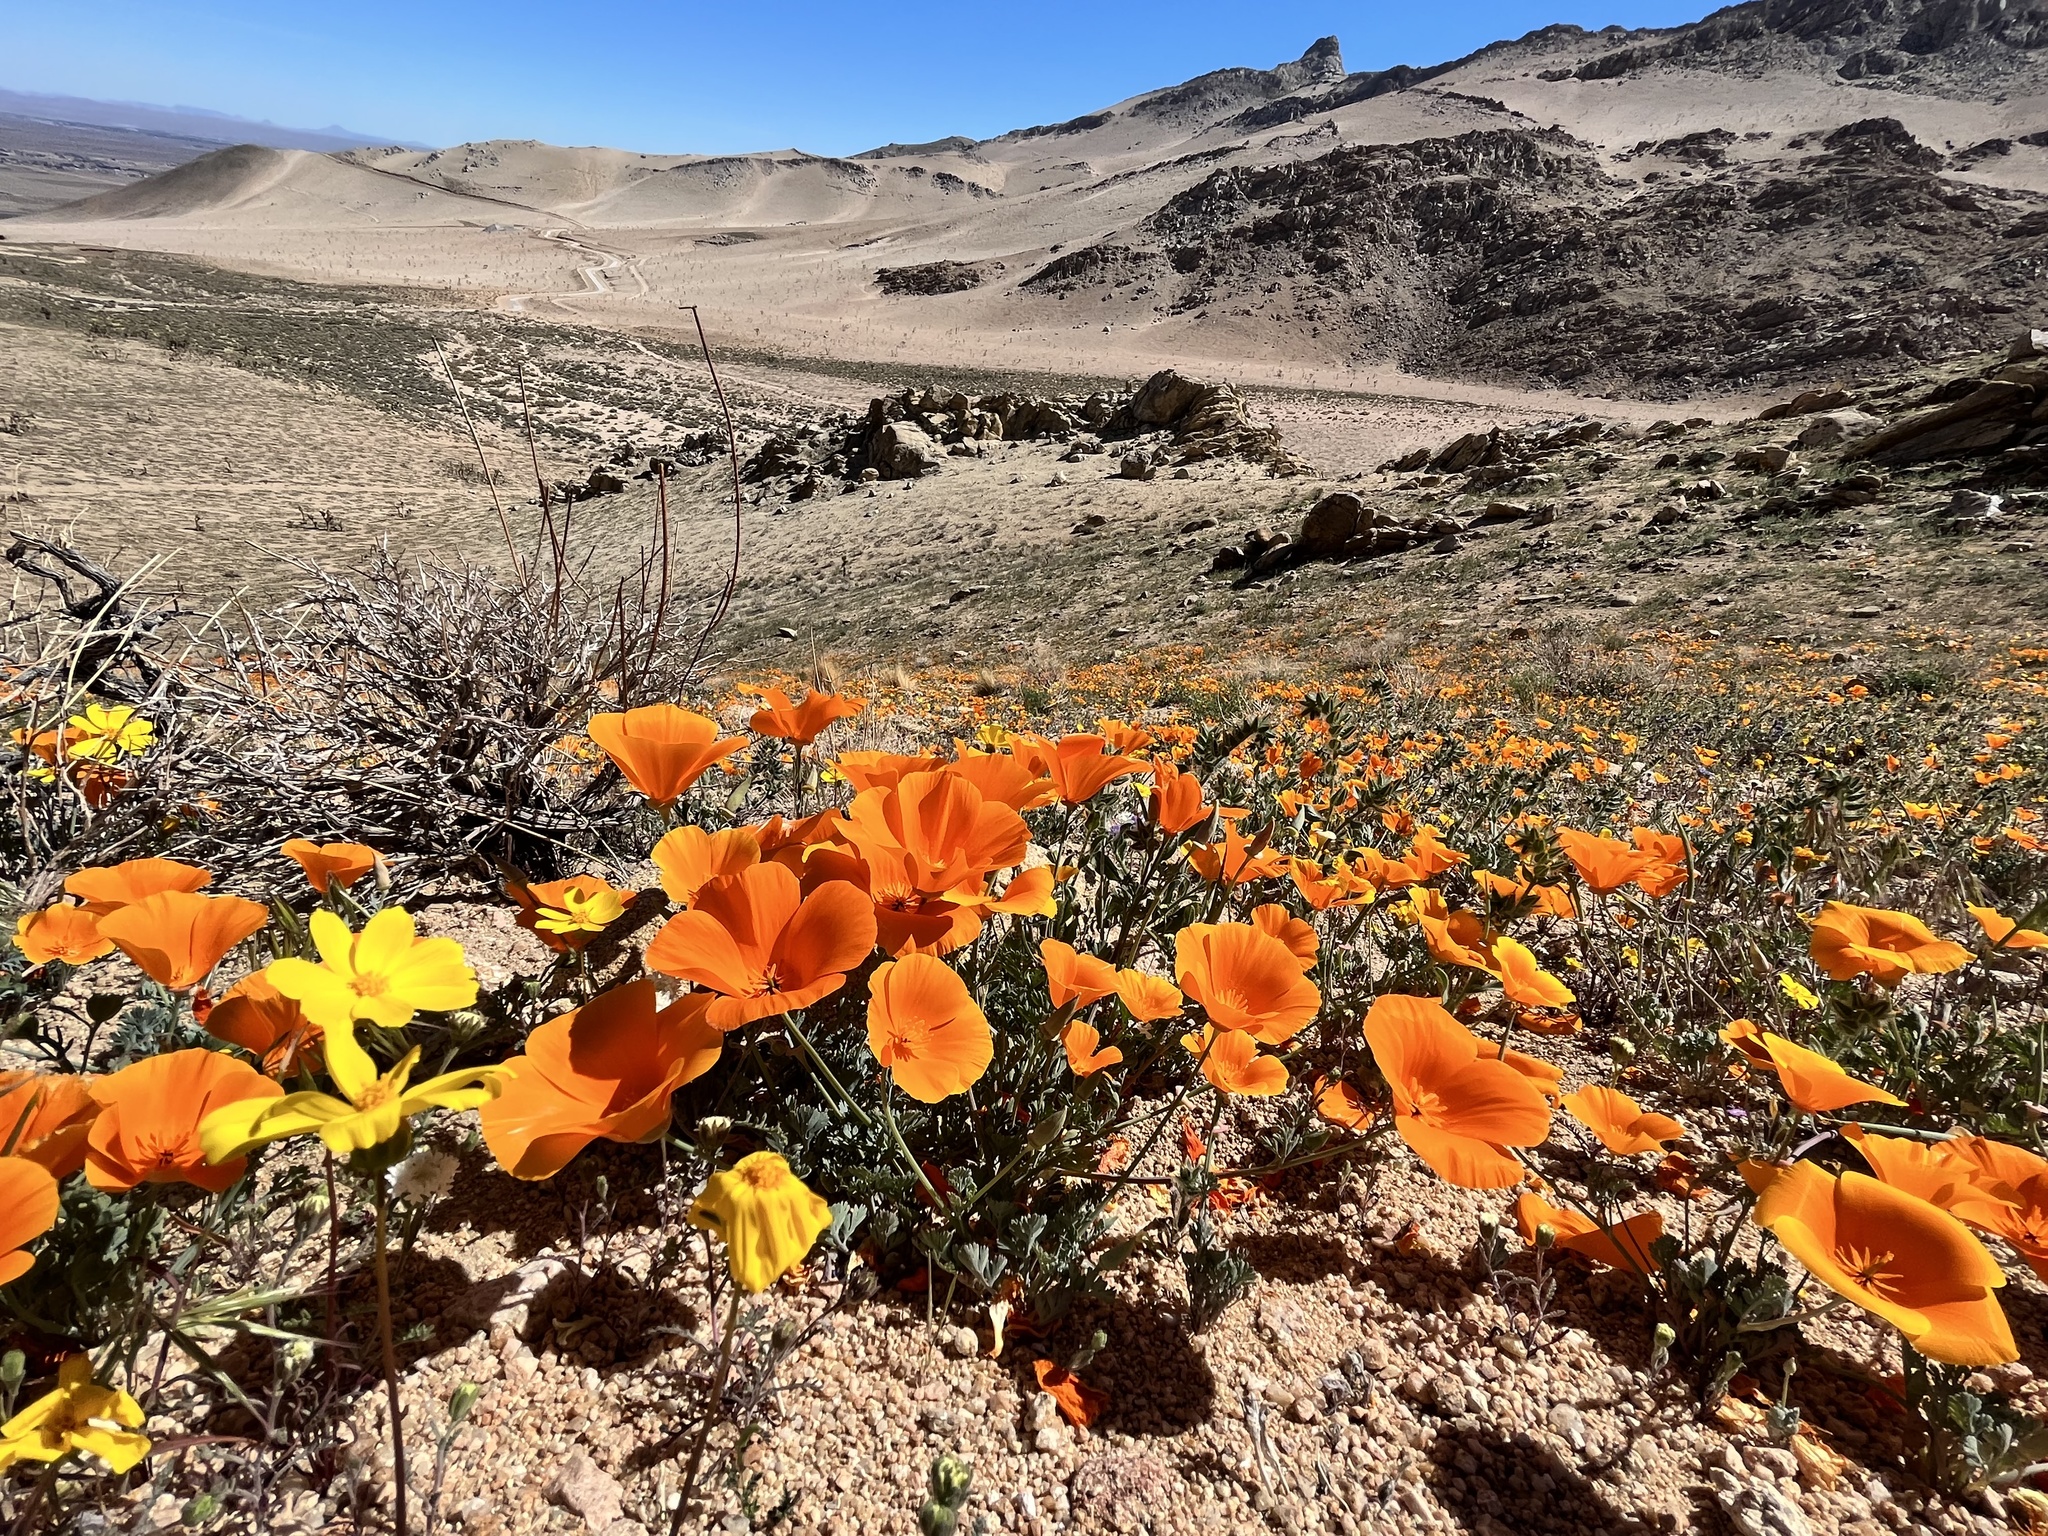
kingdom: Plantae
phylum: Tracheophyta
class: Magnoliopsida
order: Ranunculales
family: Papaveraceae
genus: Eschscholzia
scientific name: Eschscholzia californica
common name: California poppy
